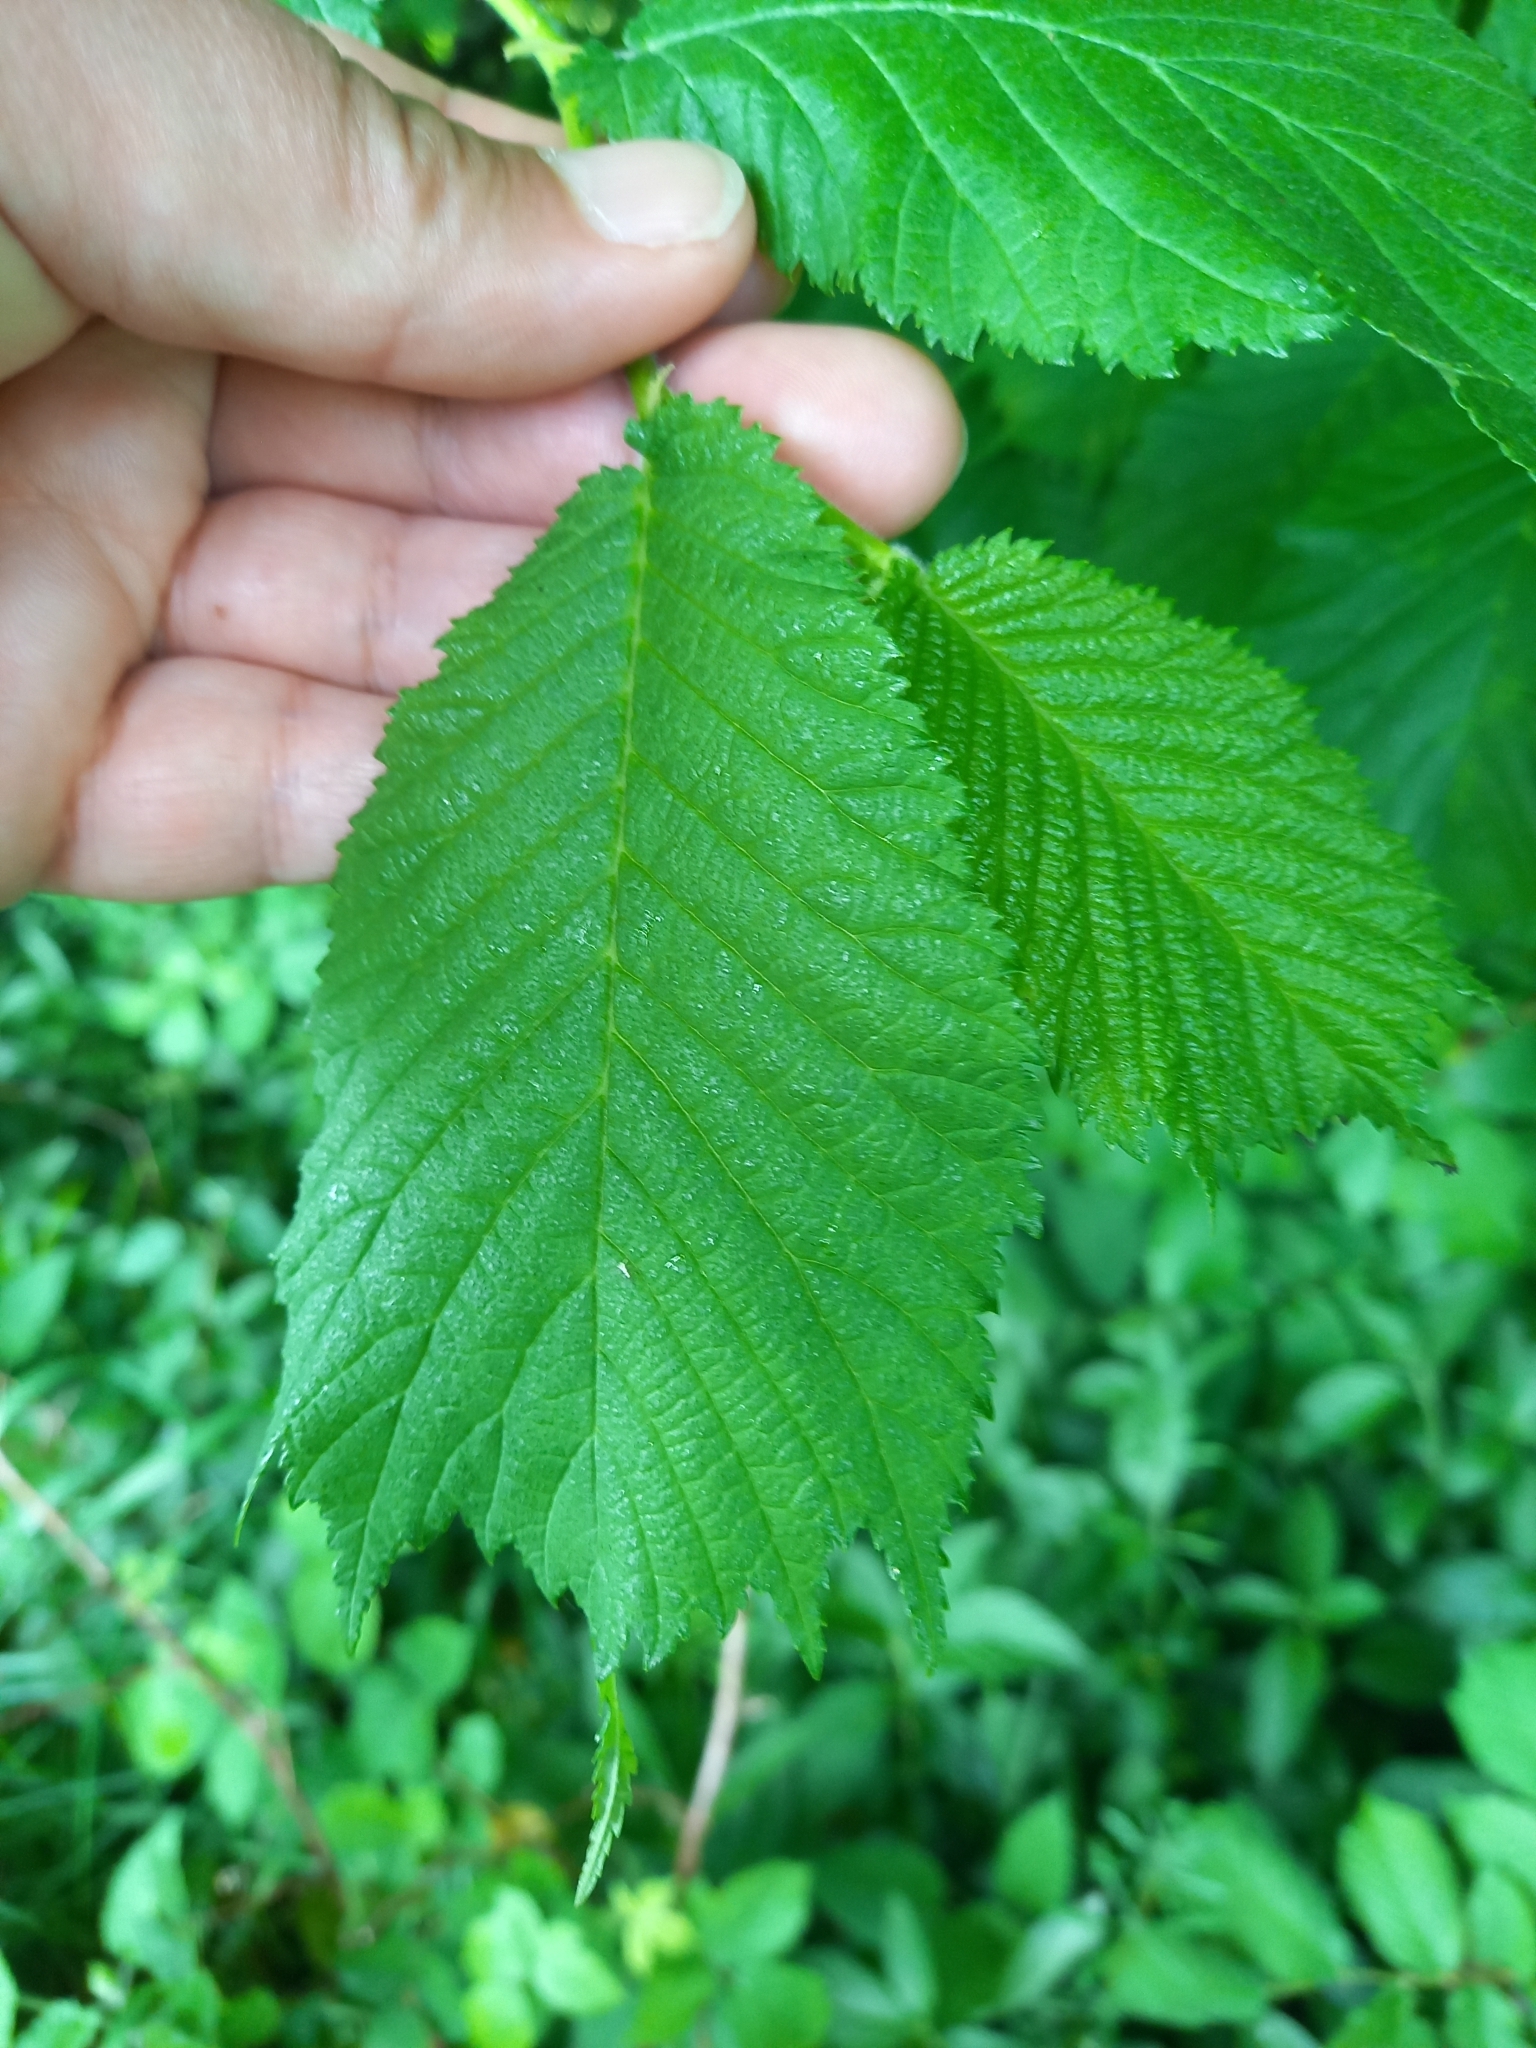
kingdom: Plantae
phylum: Tracheophyta
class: Magnoliopsida
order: Rosales
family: Ulmaceae
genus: Ulmus
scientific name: Ulmus glabra
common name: Wych elm
